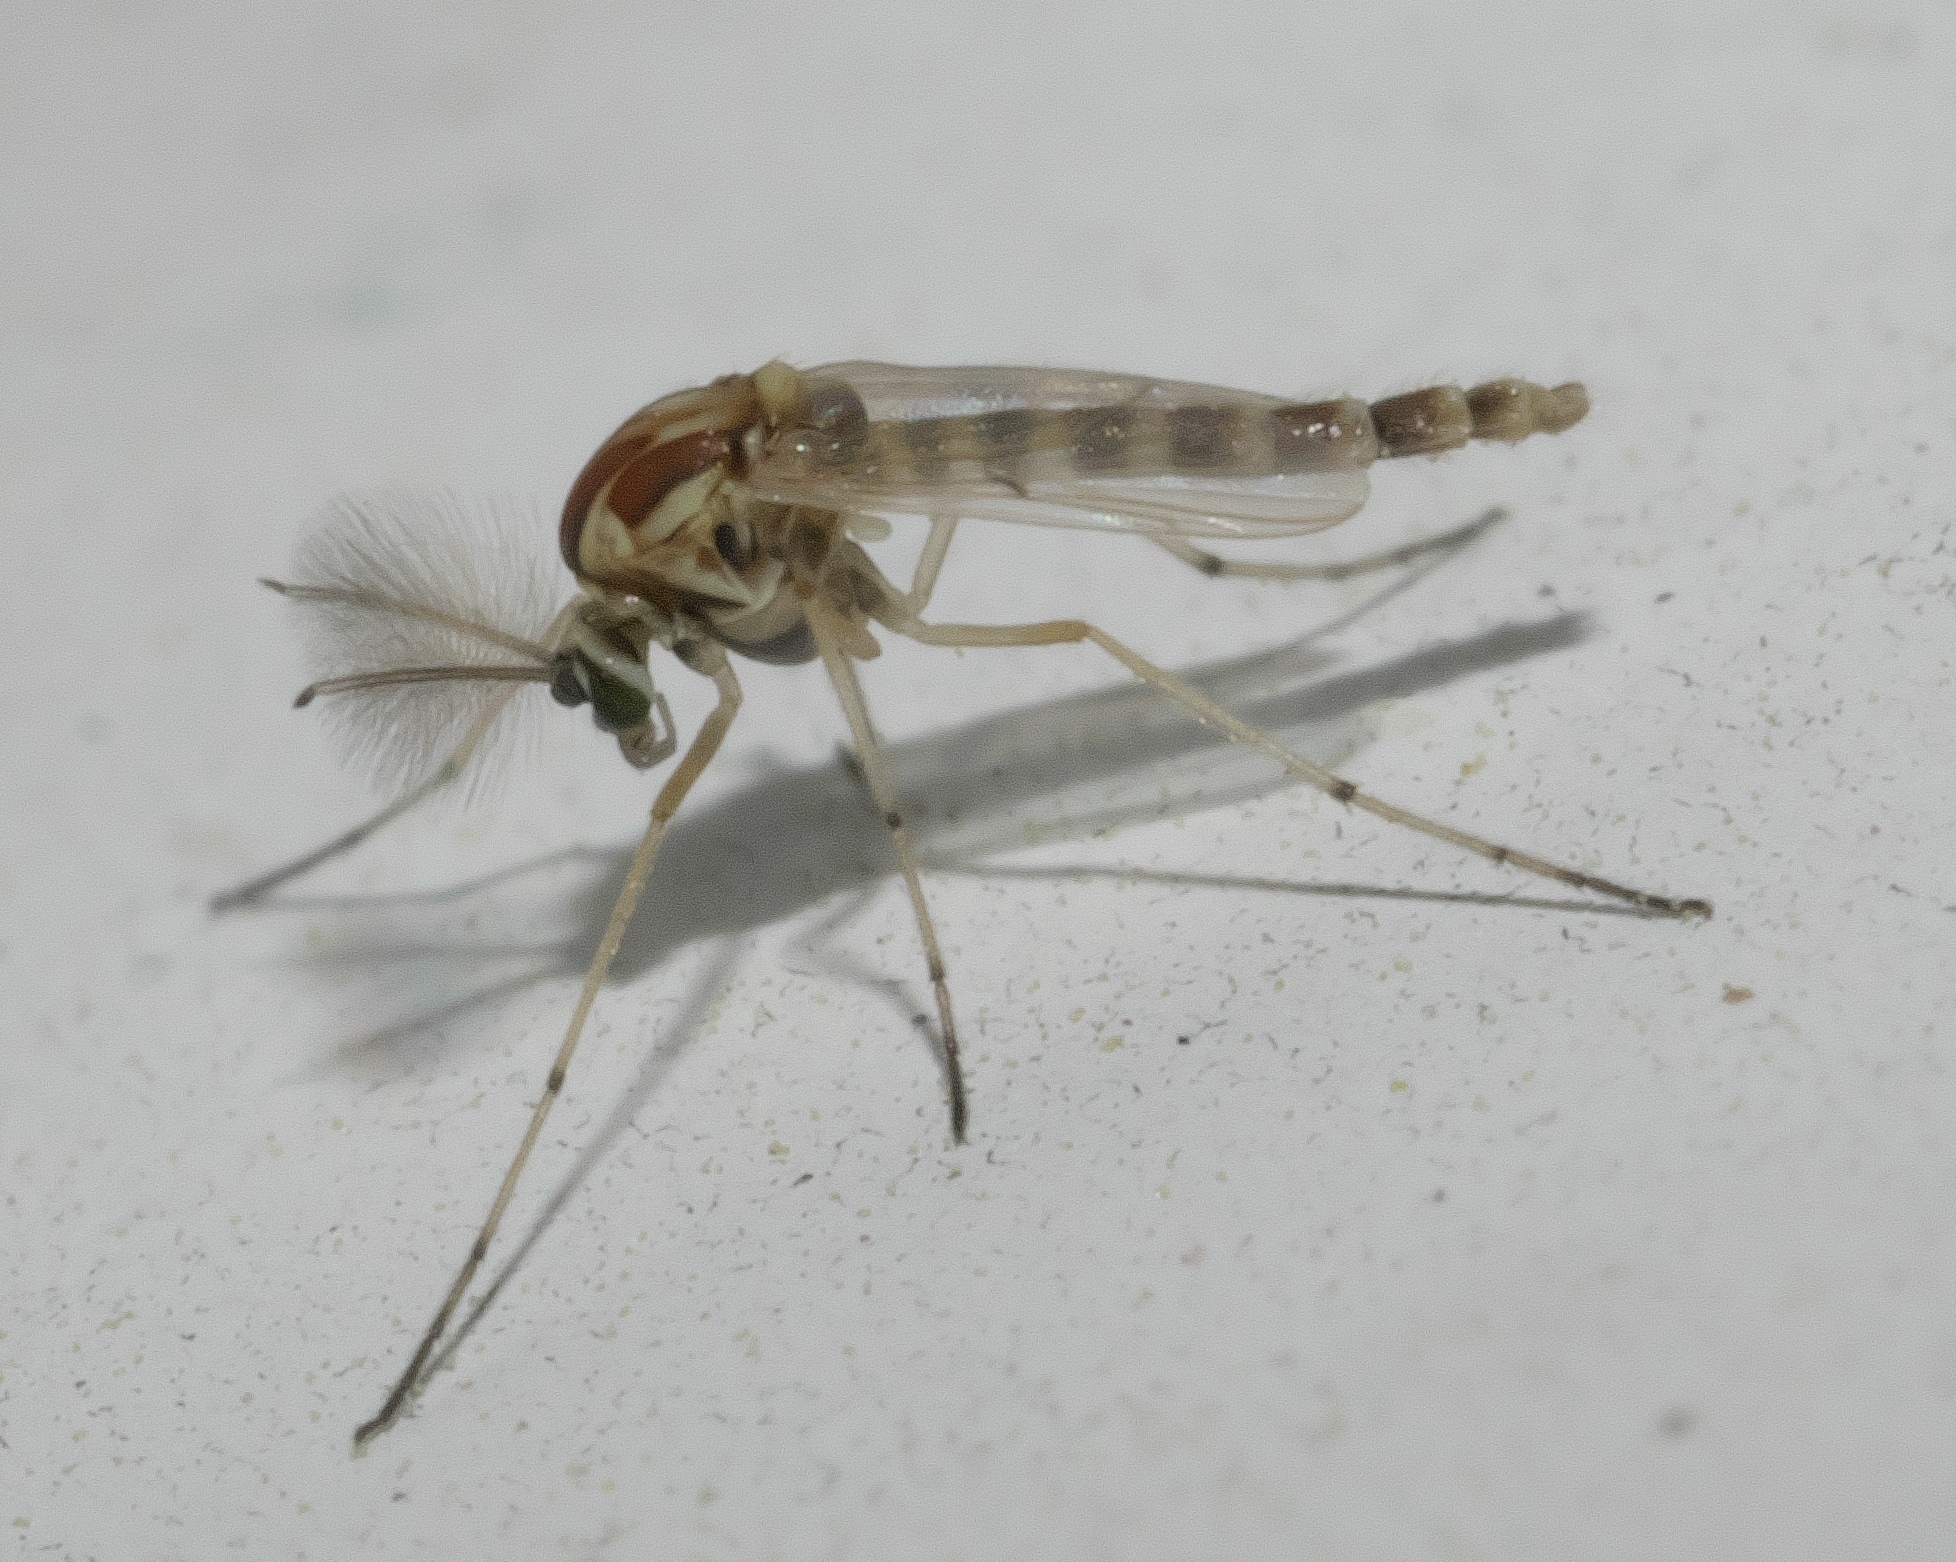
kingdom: Animalia
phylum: Arthropoda
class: Insecta
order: Diptera
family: Chironomidae
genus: Procladius
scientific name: Procladius bellus
